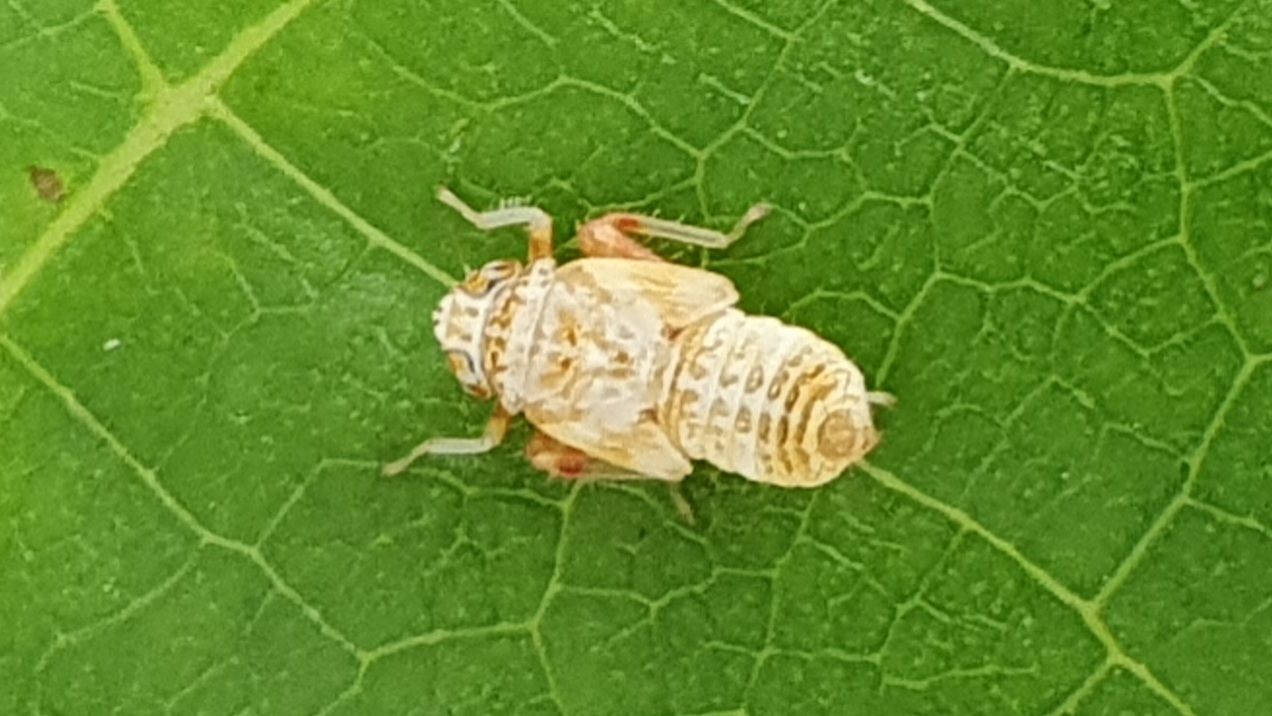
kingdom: Animalia
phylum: Arthropoda
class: Insecta
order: Hemiptera
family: Cicadellidae
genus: Orientus
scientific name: Orientus ishidae
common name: Japanese leafhopper
